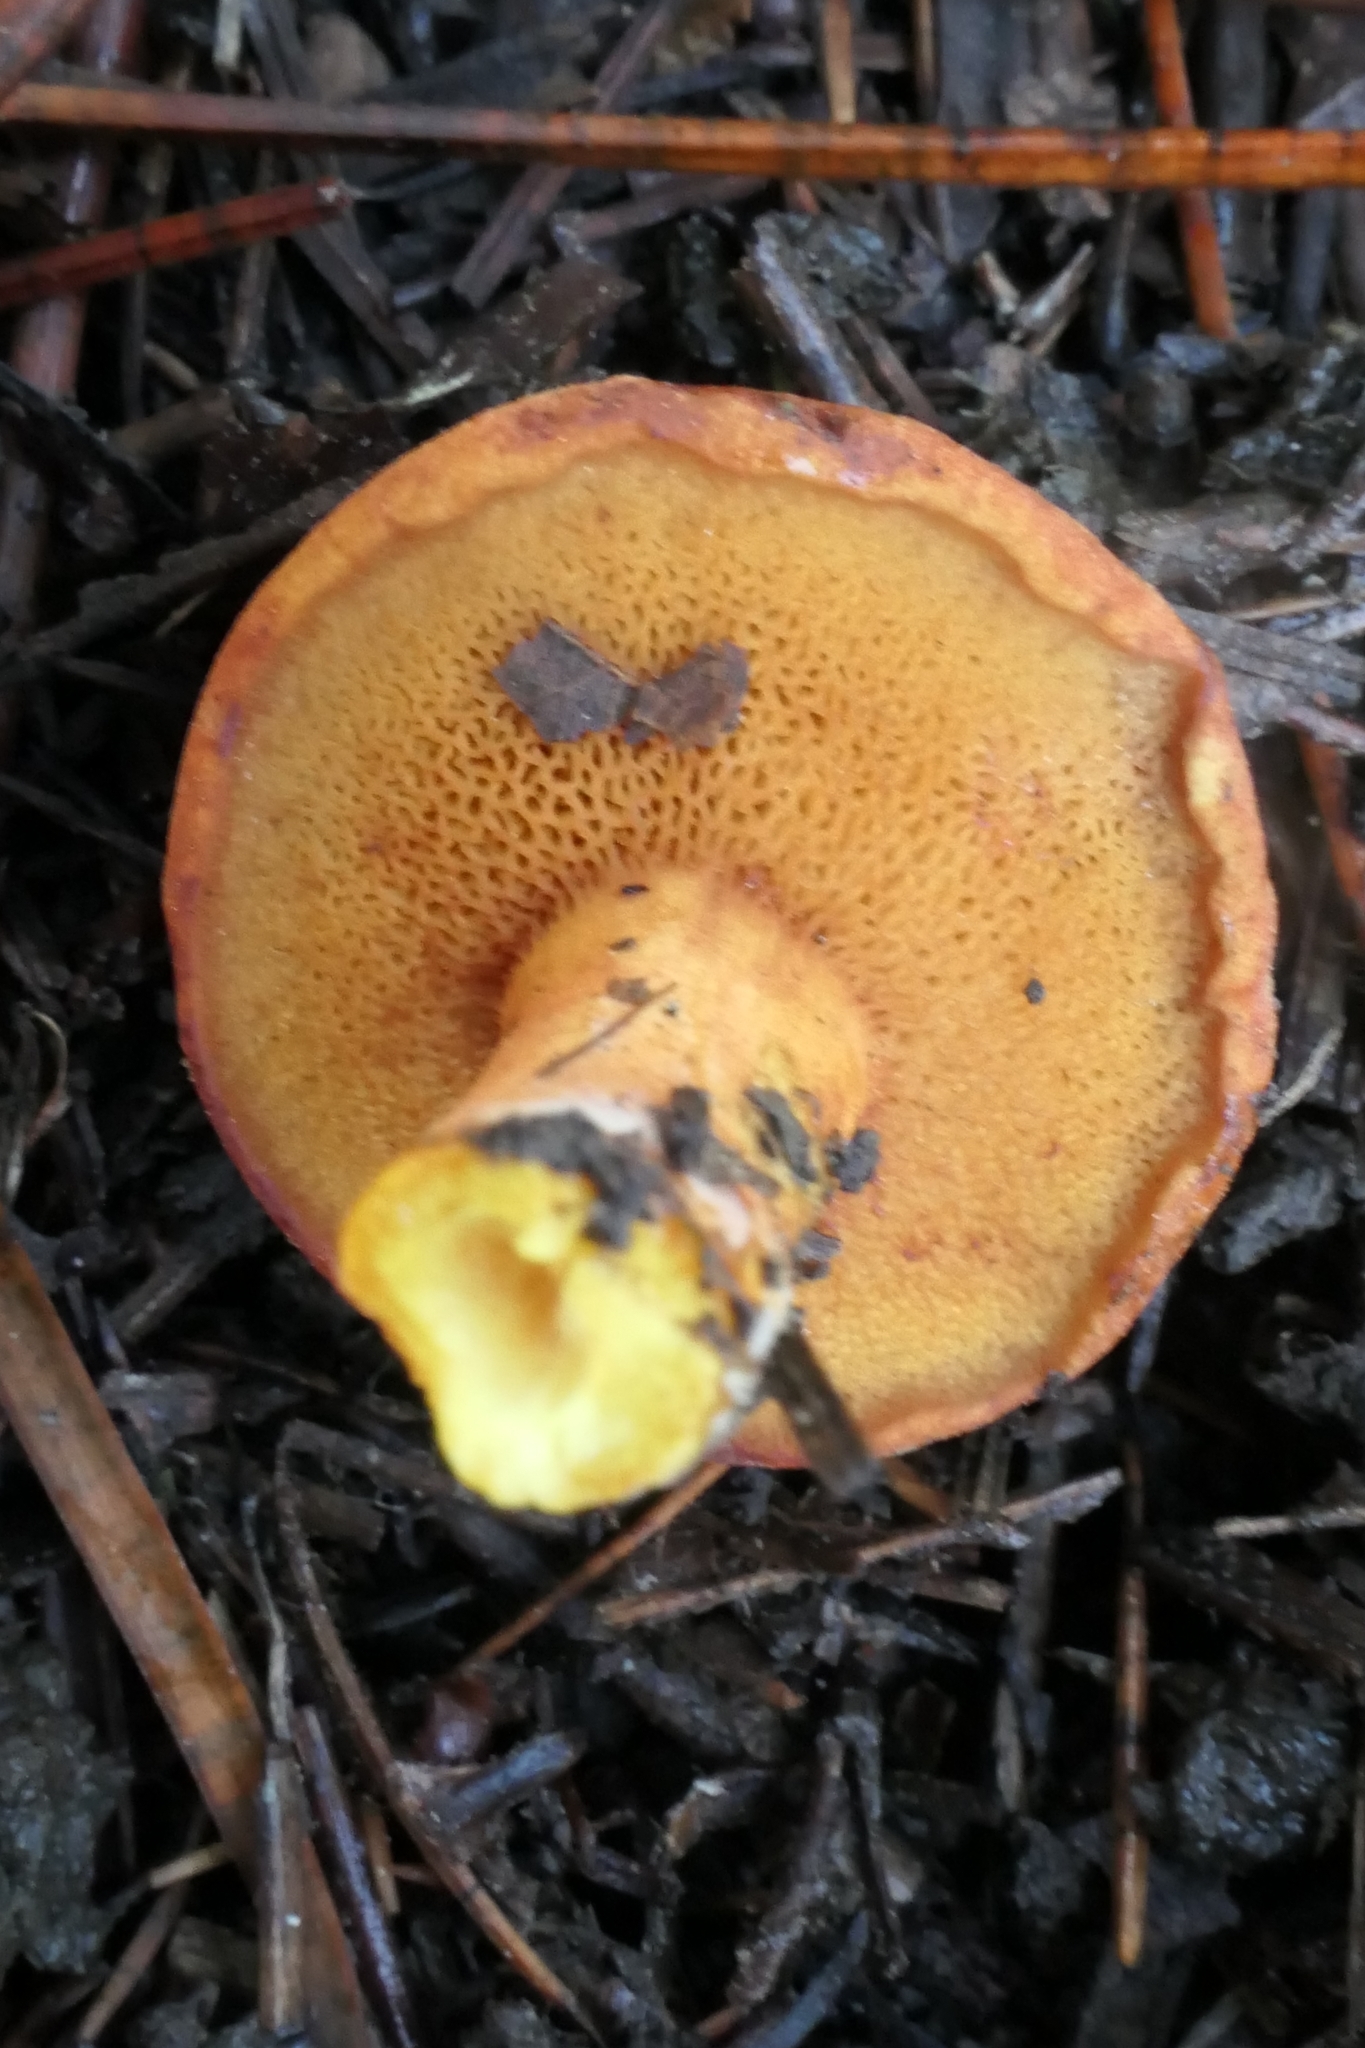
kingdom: Fungi
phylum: Basidiomycota
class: Agaricomycetes
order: Boletales
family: Boletaceae
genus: Chalciporus
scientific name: Chalciporus piperatus
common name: Peppery bolete
